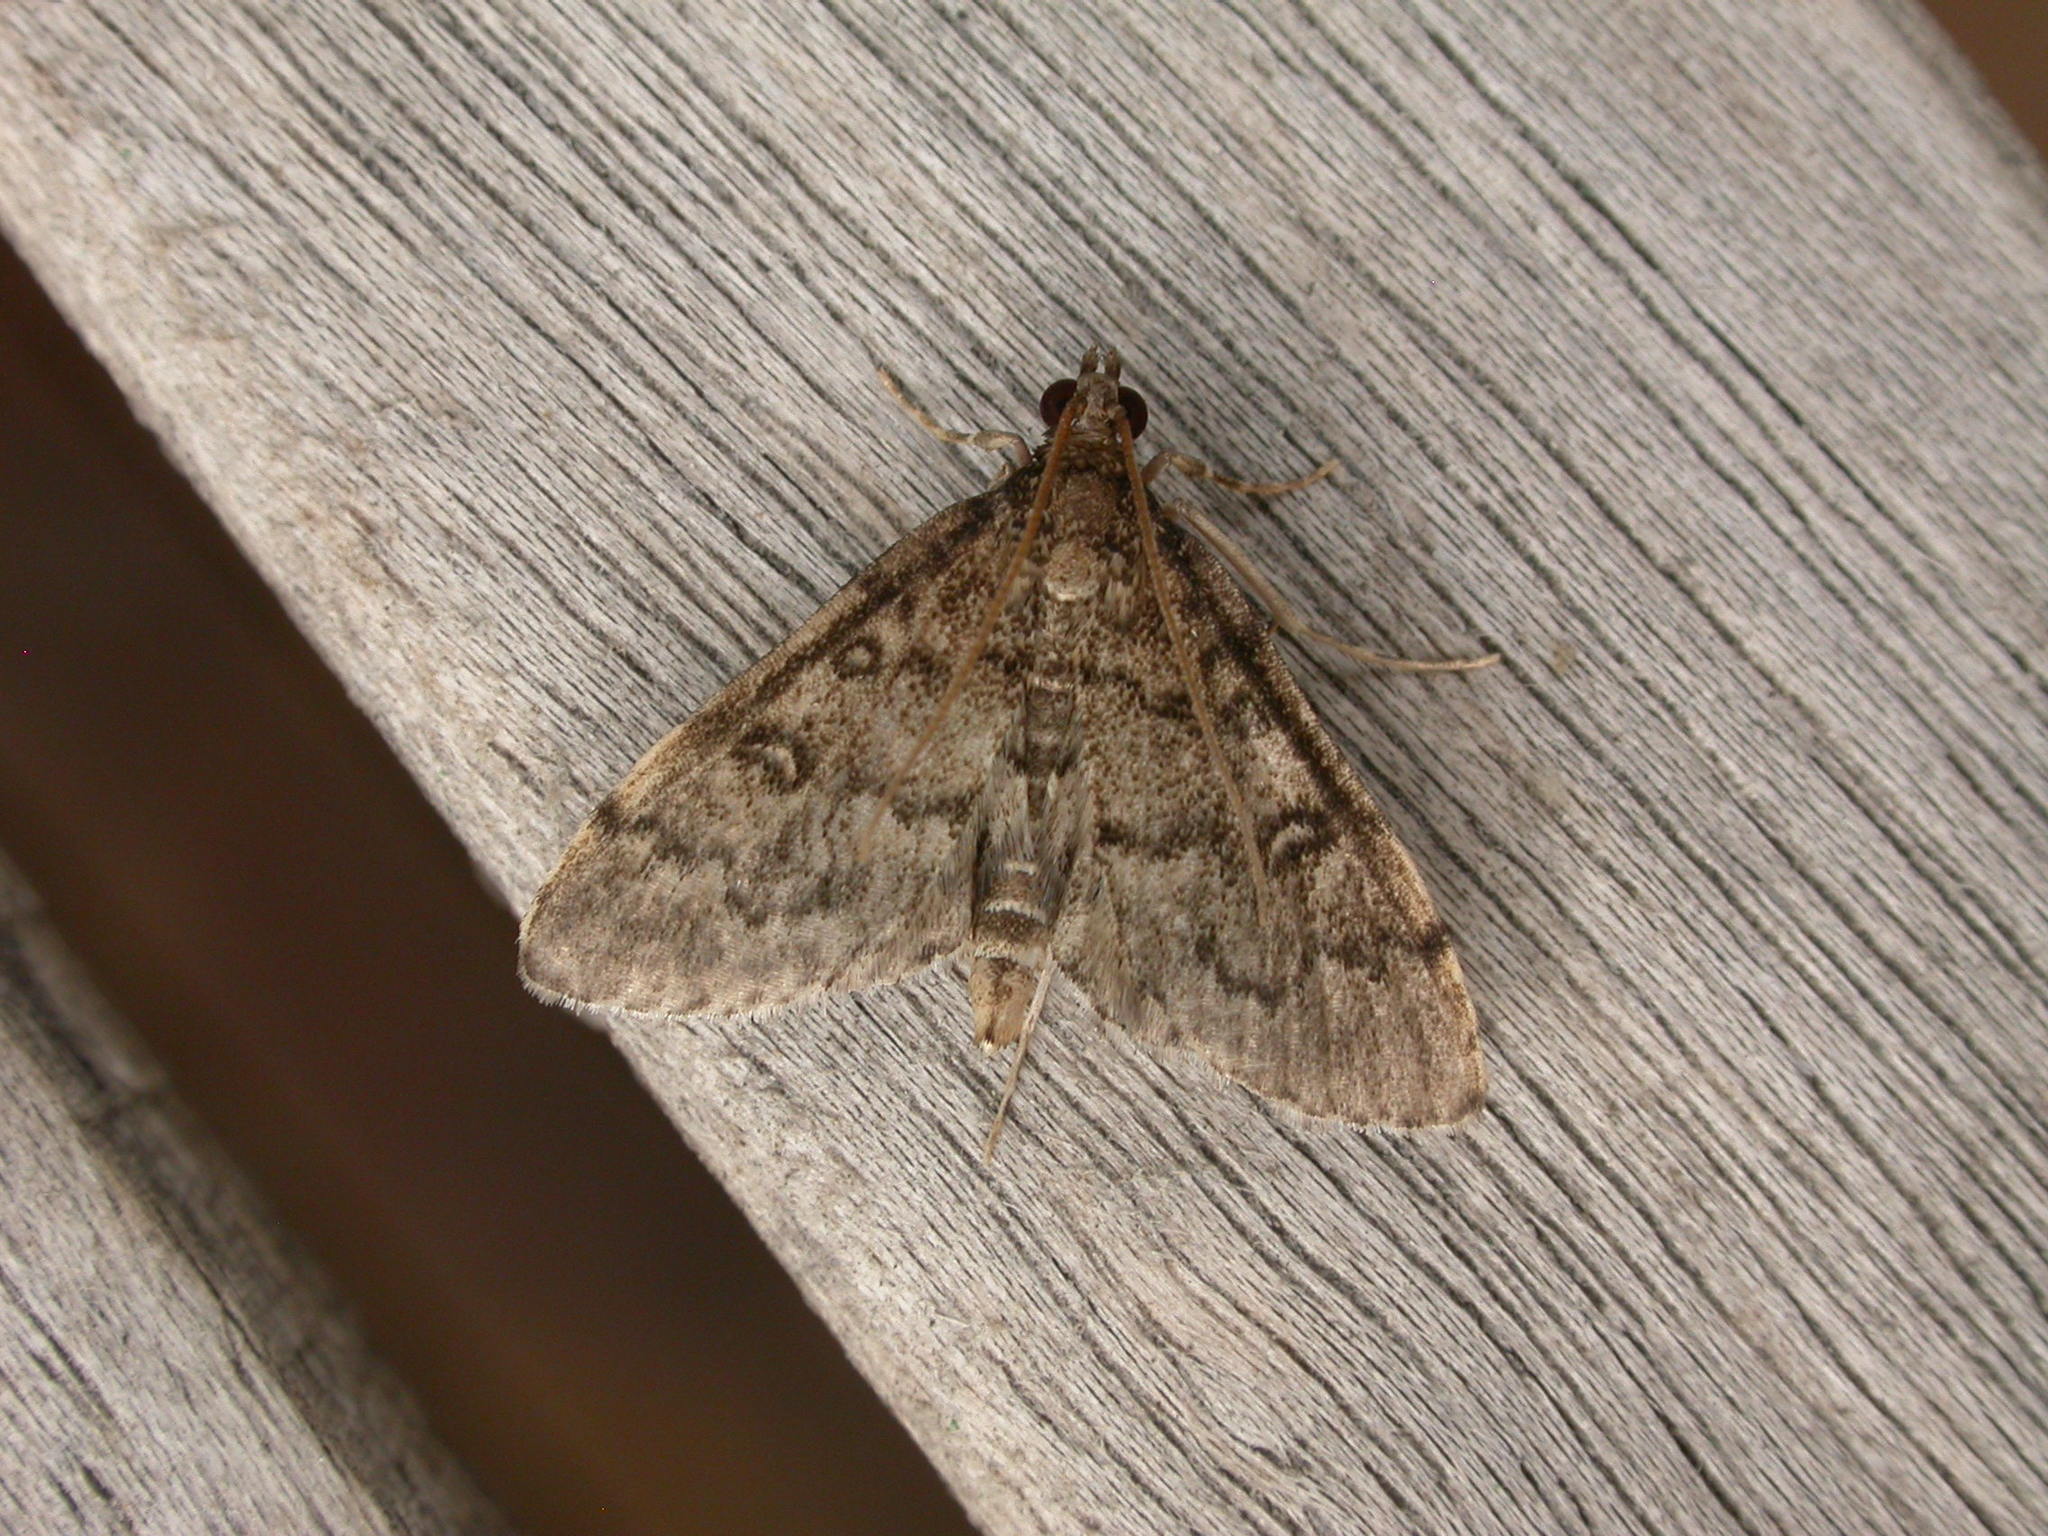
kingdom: Animalia
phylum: Arthropoda
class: Insecta
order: Lepidoptera
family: Crambidae
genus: Metasia
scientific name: Metasia liophaea
